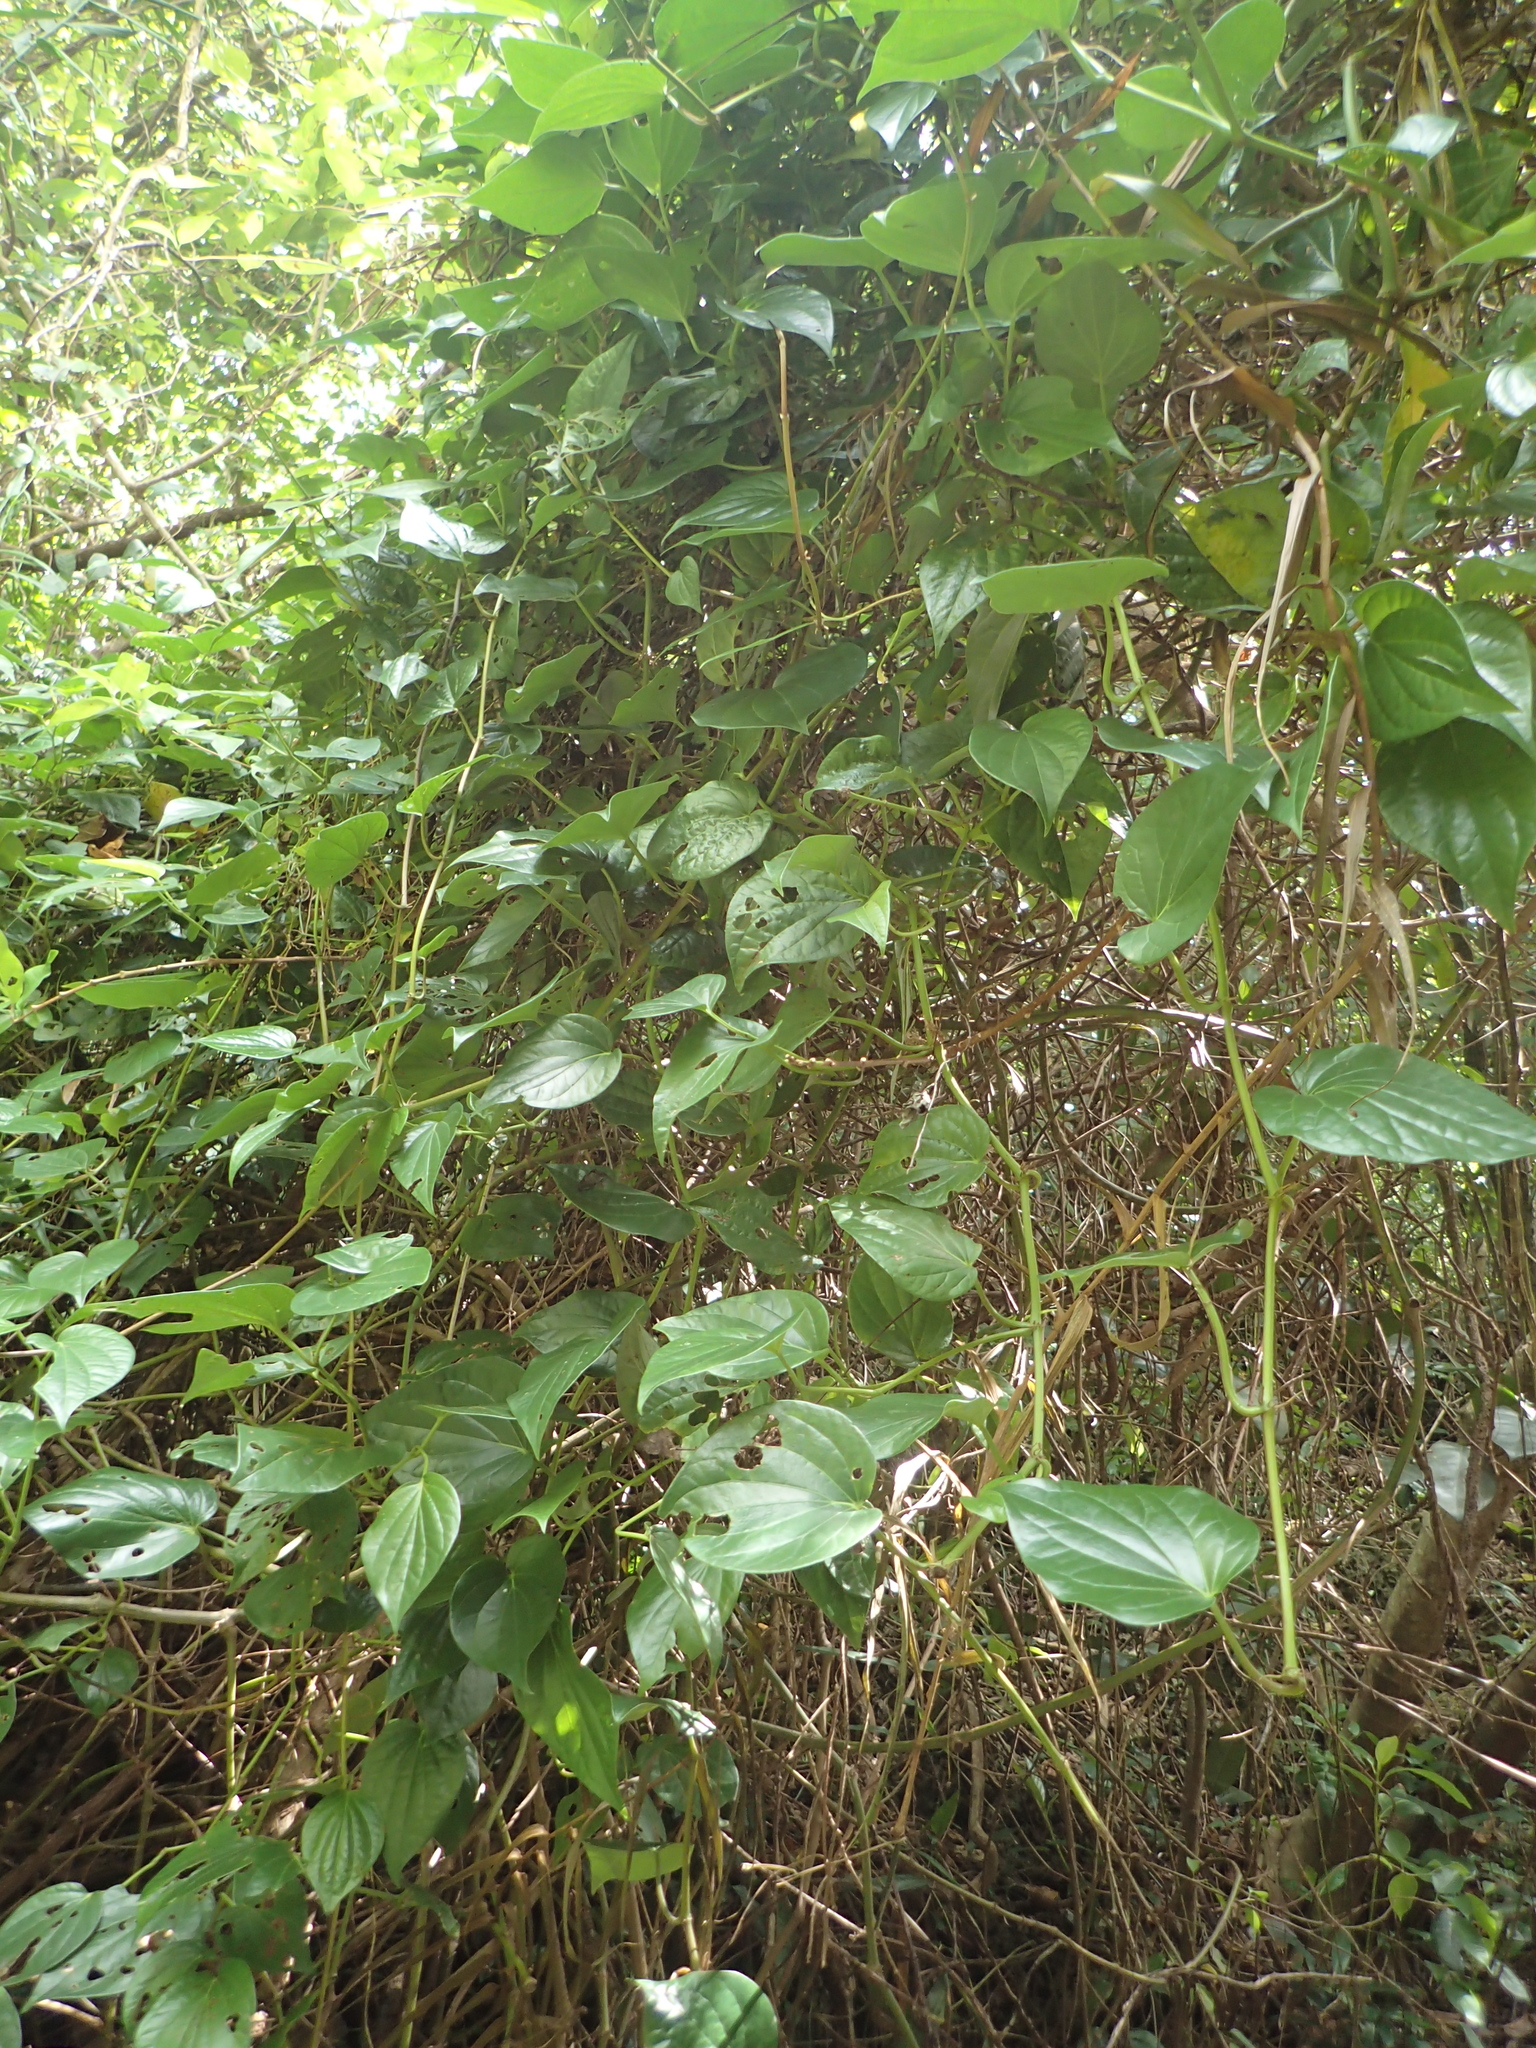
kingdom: Plantae
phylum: Tracheophyta
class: Magnoliopsida
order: Piperales
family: Piperaceae
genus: Piper
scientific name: Piper betle
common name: Betel pepper
